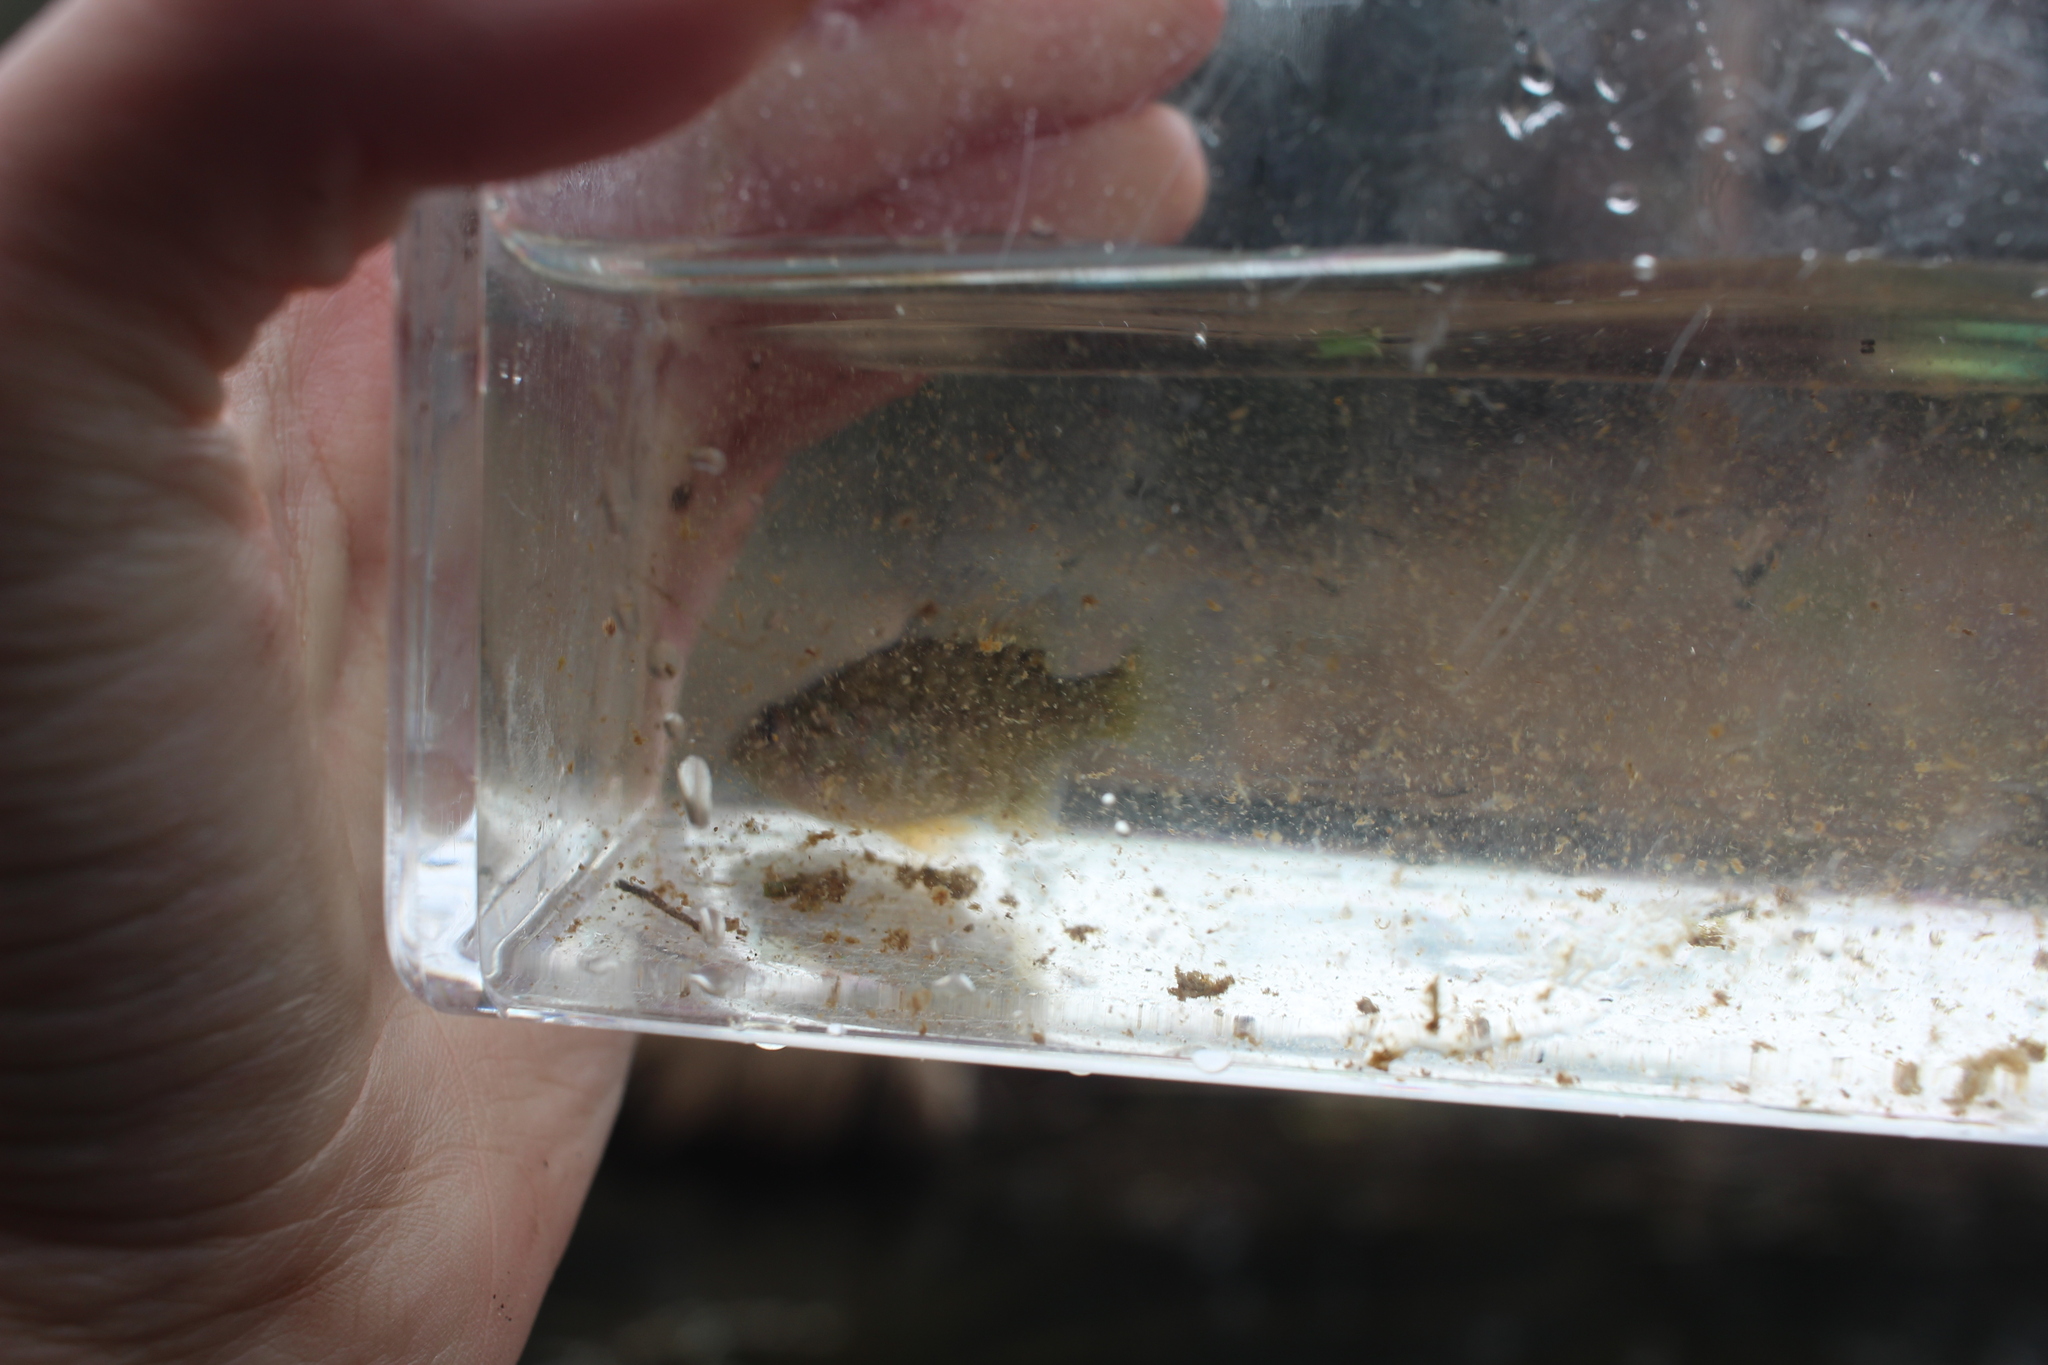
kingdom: Animalia
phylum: Chordata
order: Perciformes
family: Centrarchidae
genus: Lepomis
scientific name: Lepomis gibbosus
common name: Pumpkinseed
